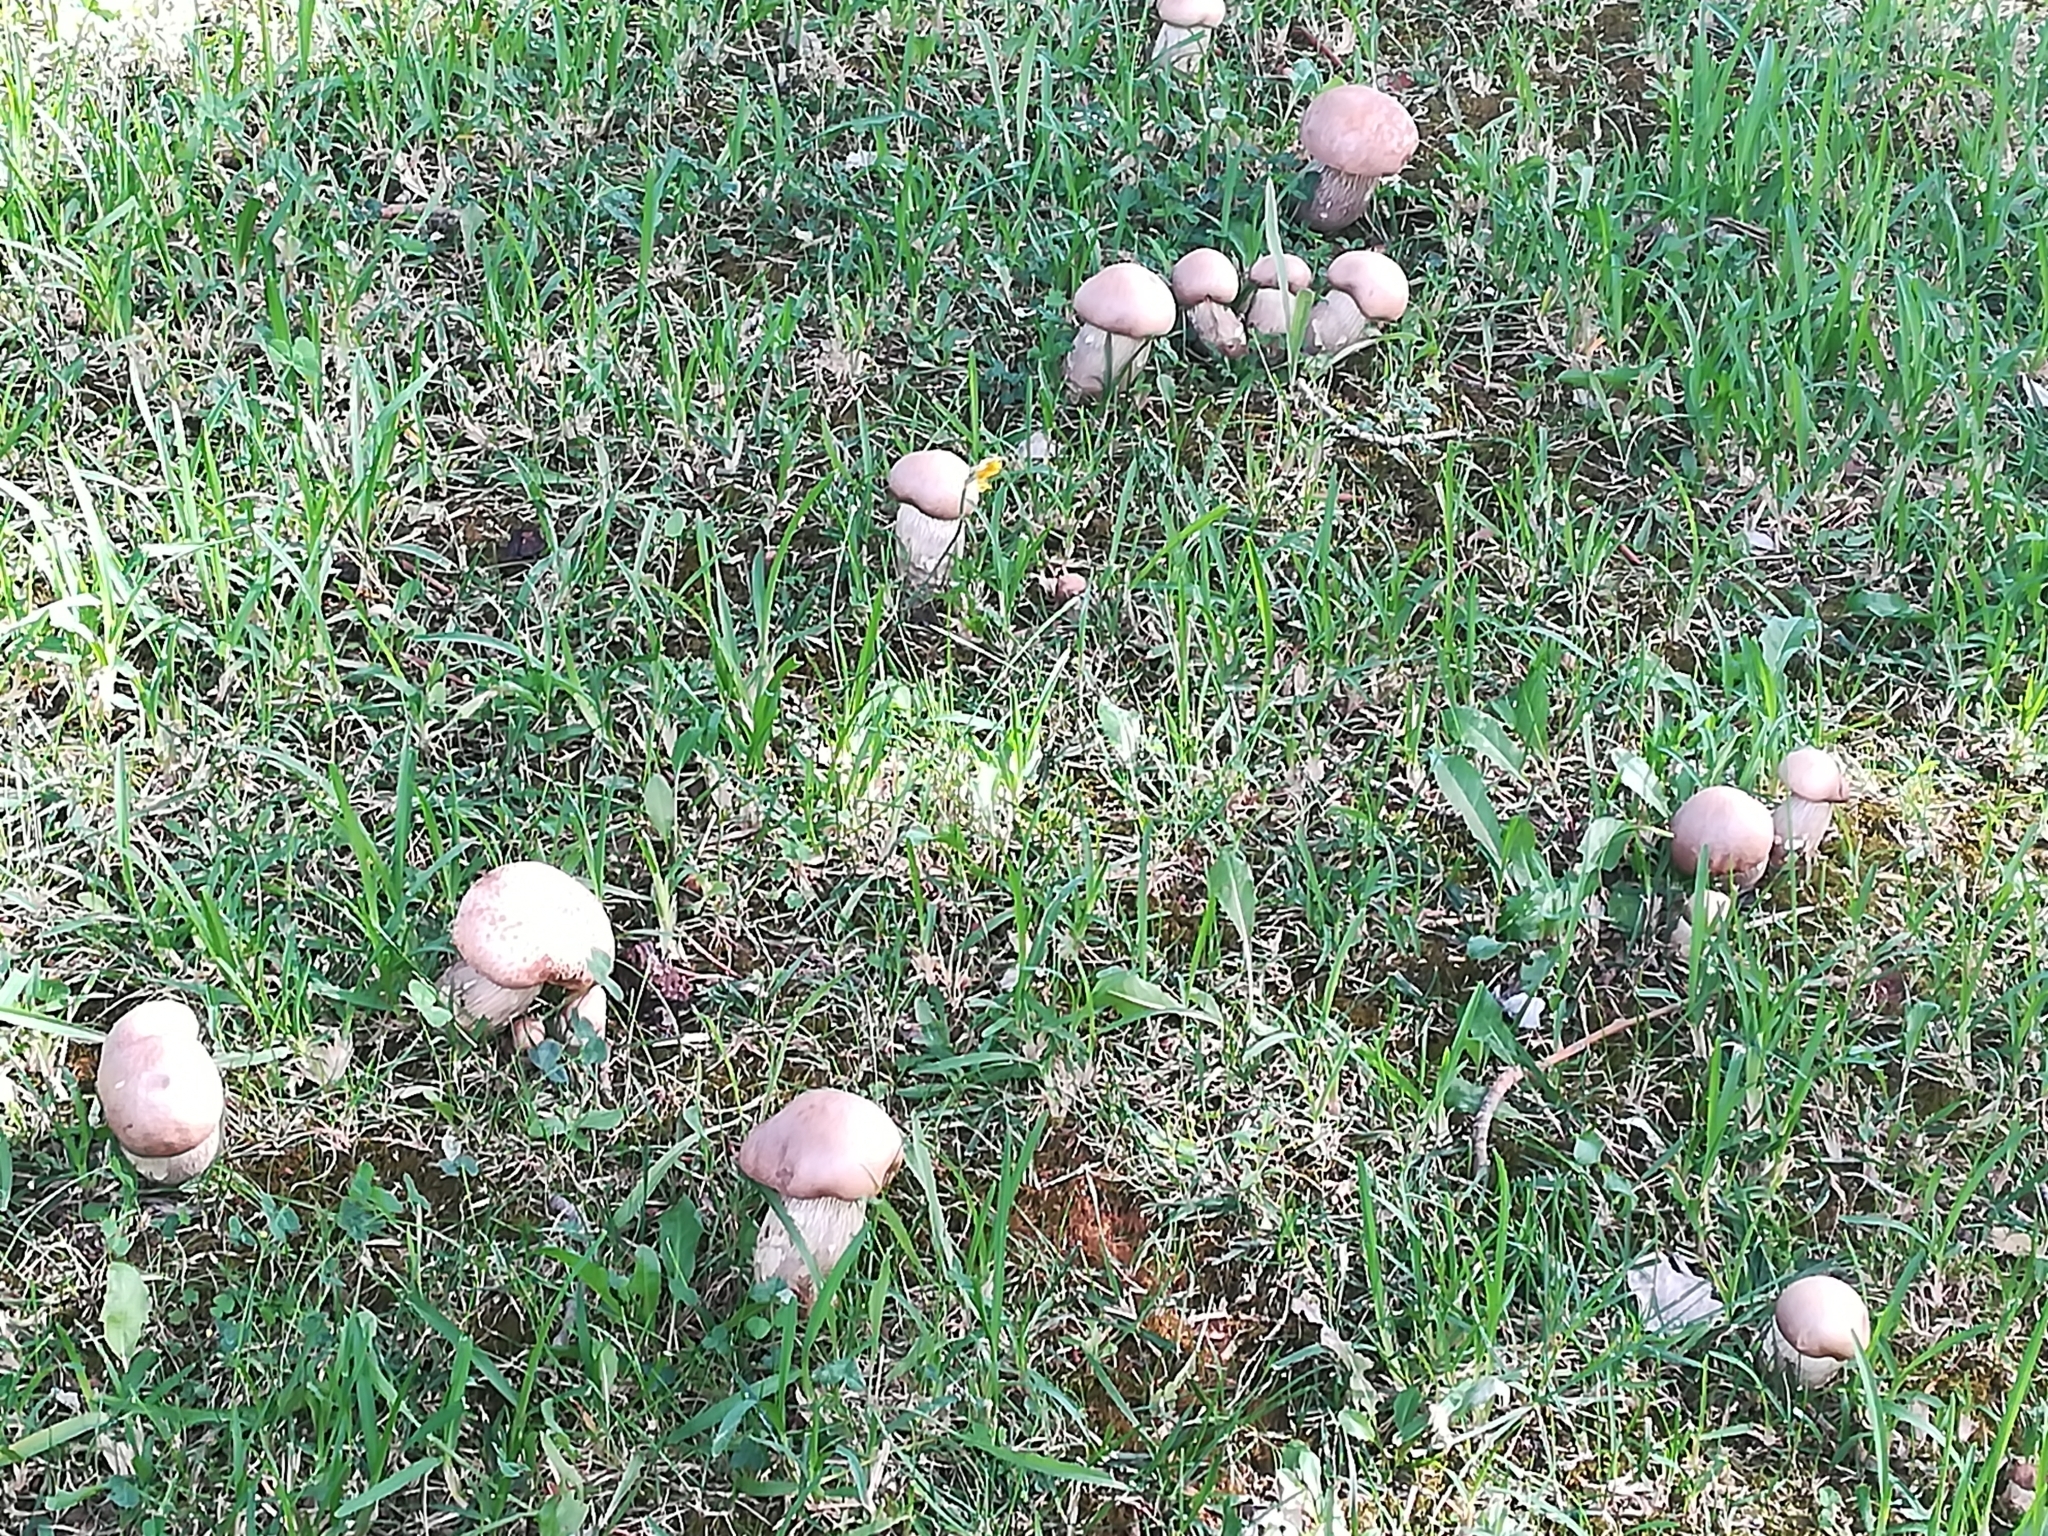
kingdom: Fungi
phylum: Basidiomycota
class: Agaricomycetes
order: Boletales
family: Boletaceae
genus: Boletus
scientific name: Boletus reticulatus
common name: Summer bolete
